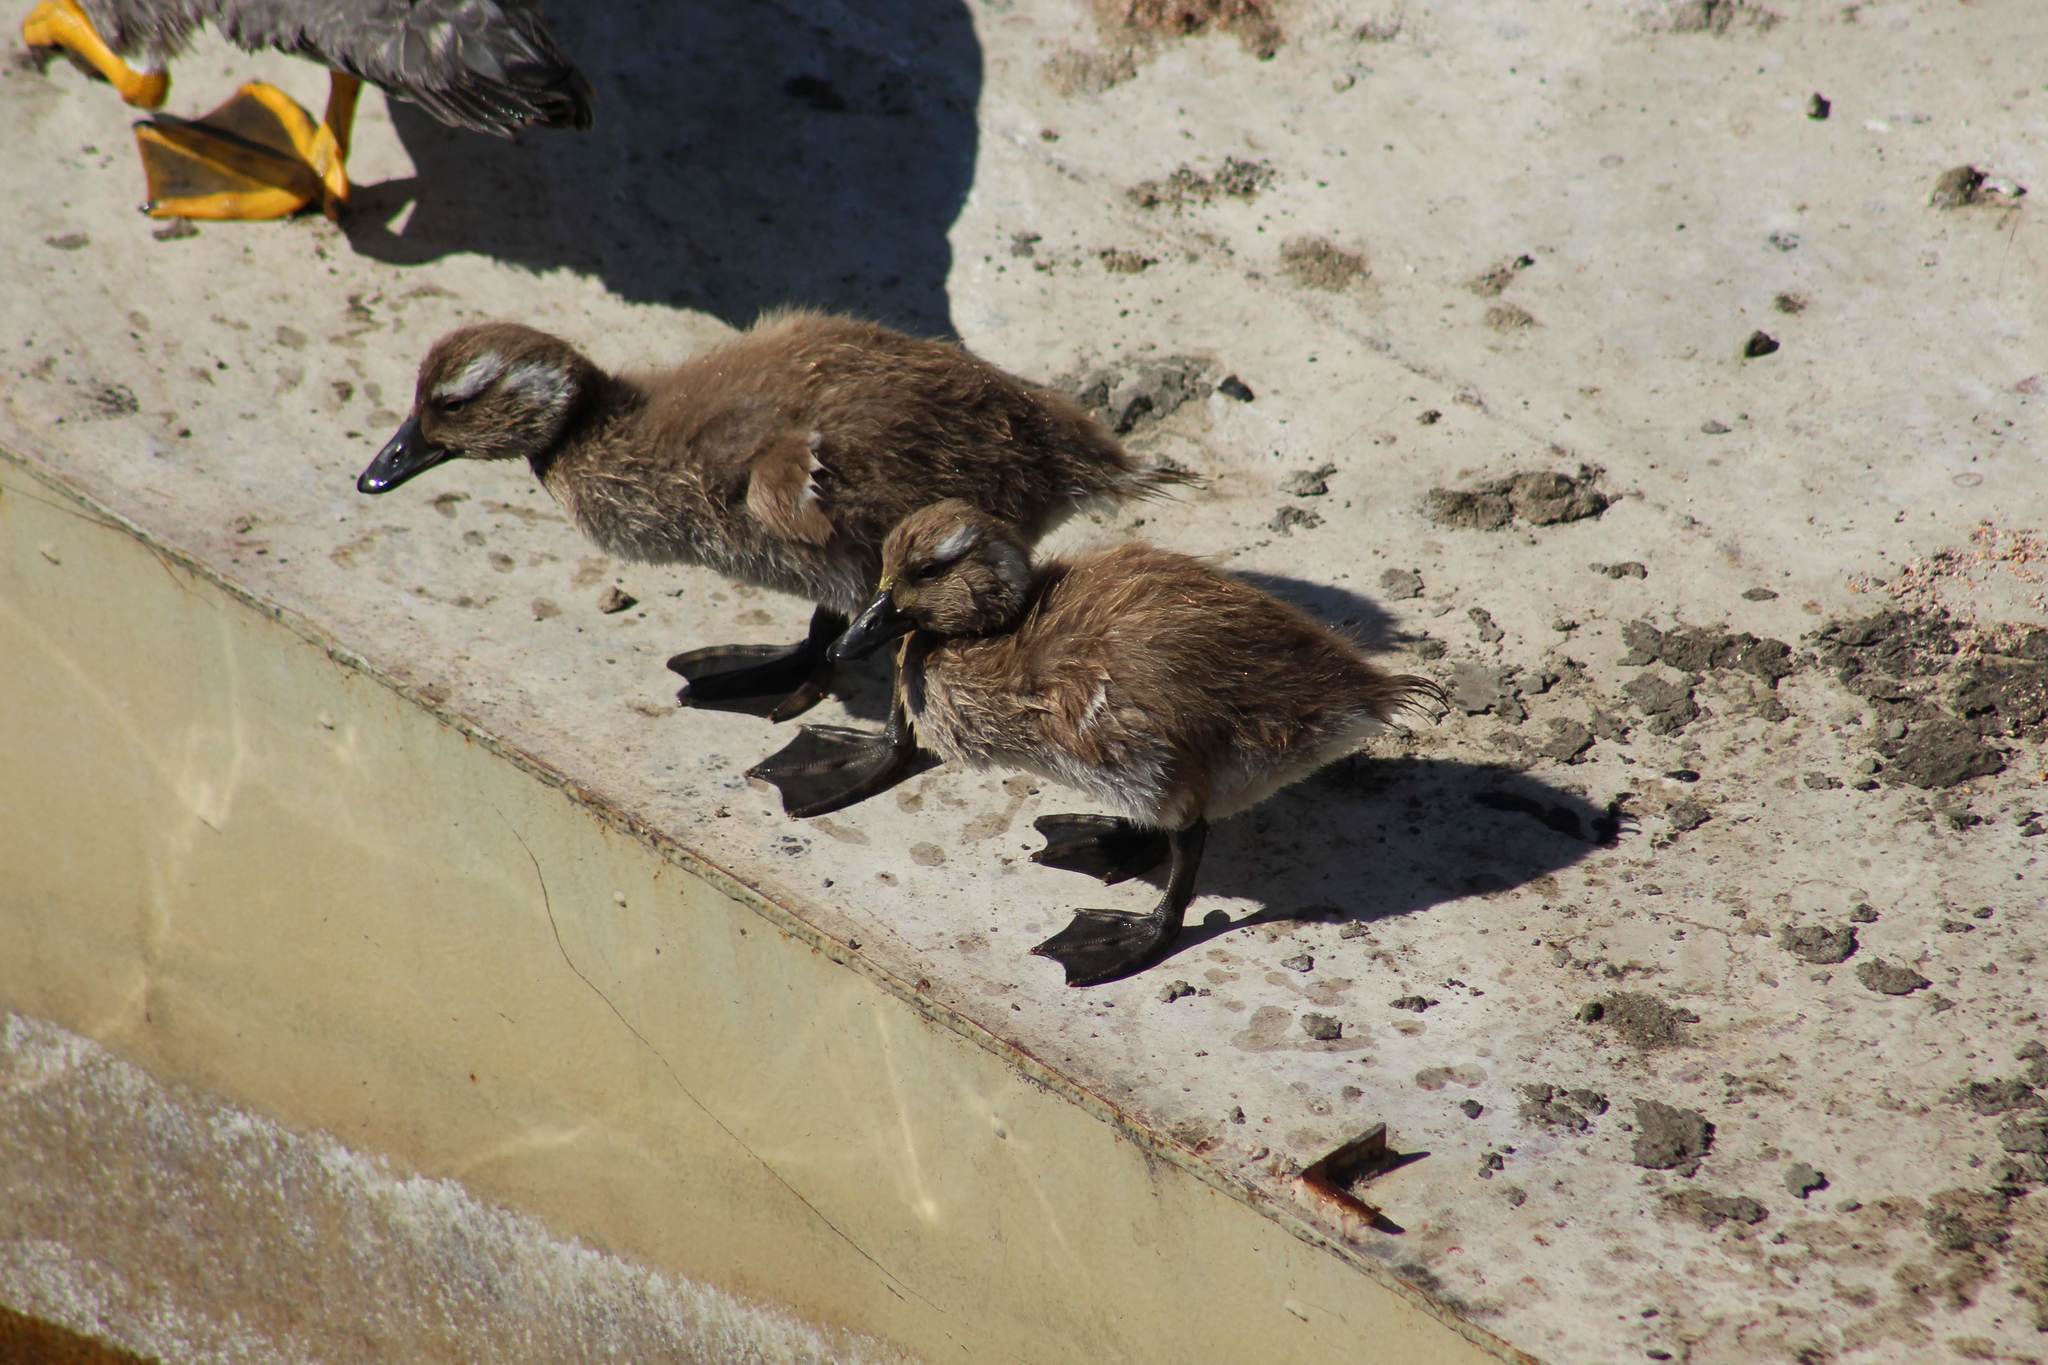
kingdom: Animalia
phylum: Chordata
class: Aves
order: Anseriformes
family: Anatidae
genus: Tachyeres
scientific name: Tachyeres patachonicus
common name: Flying steamer duck
